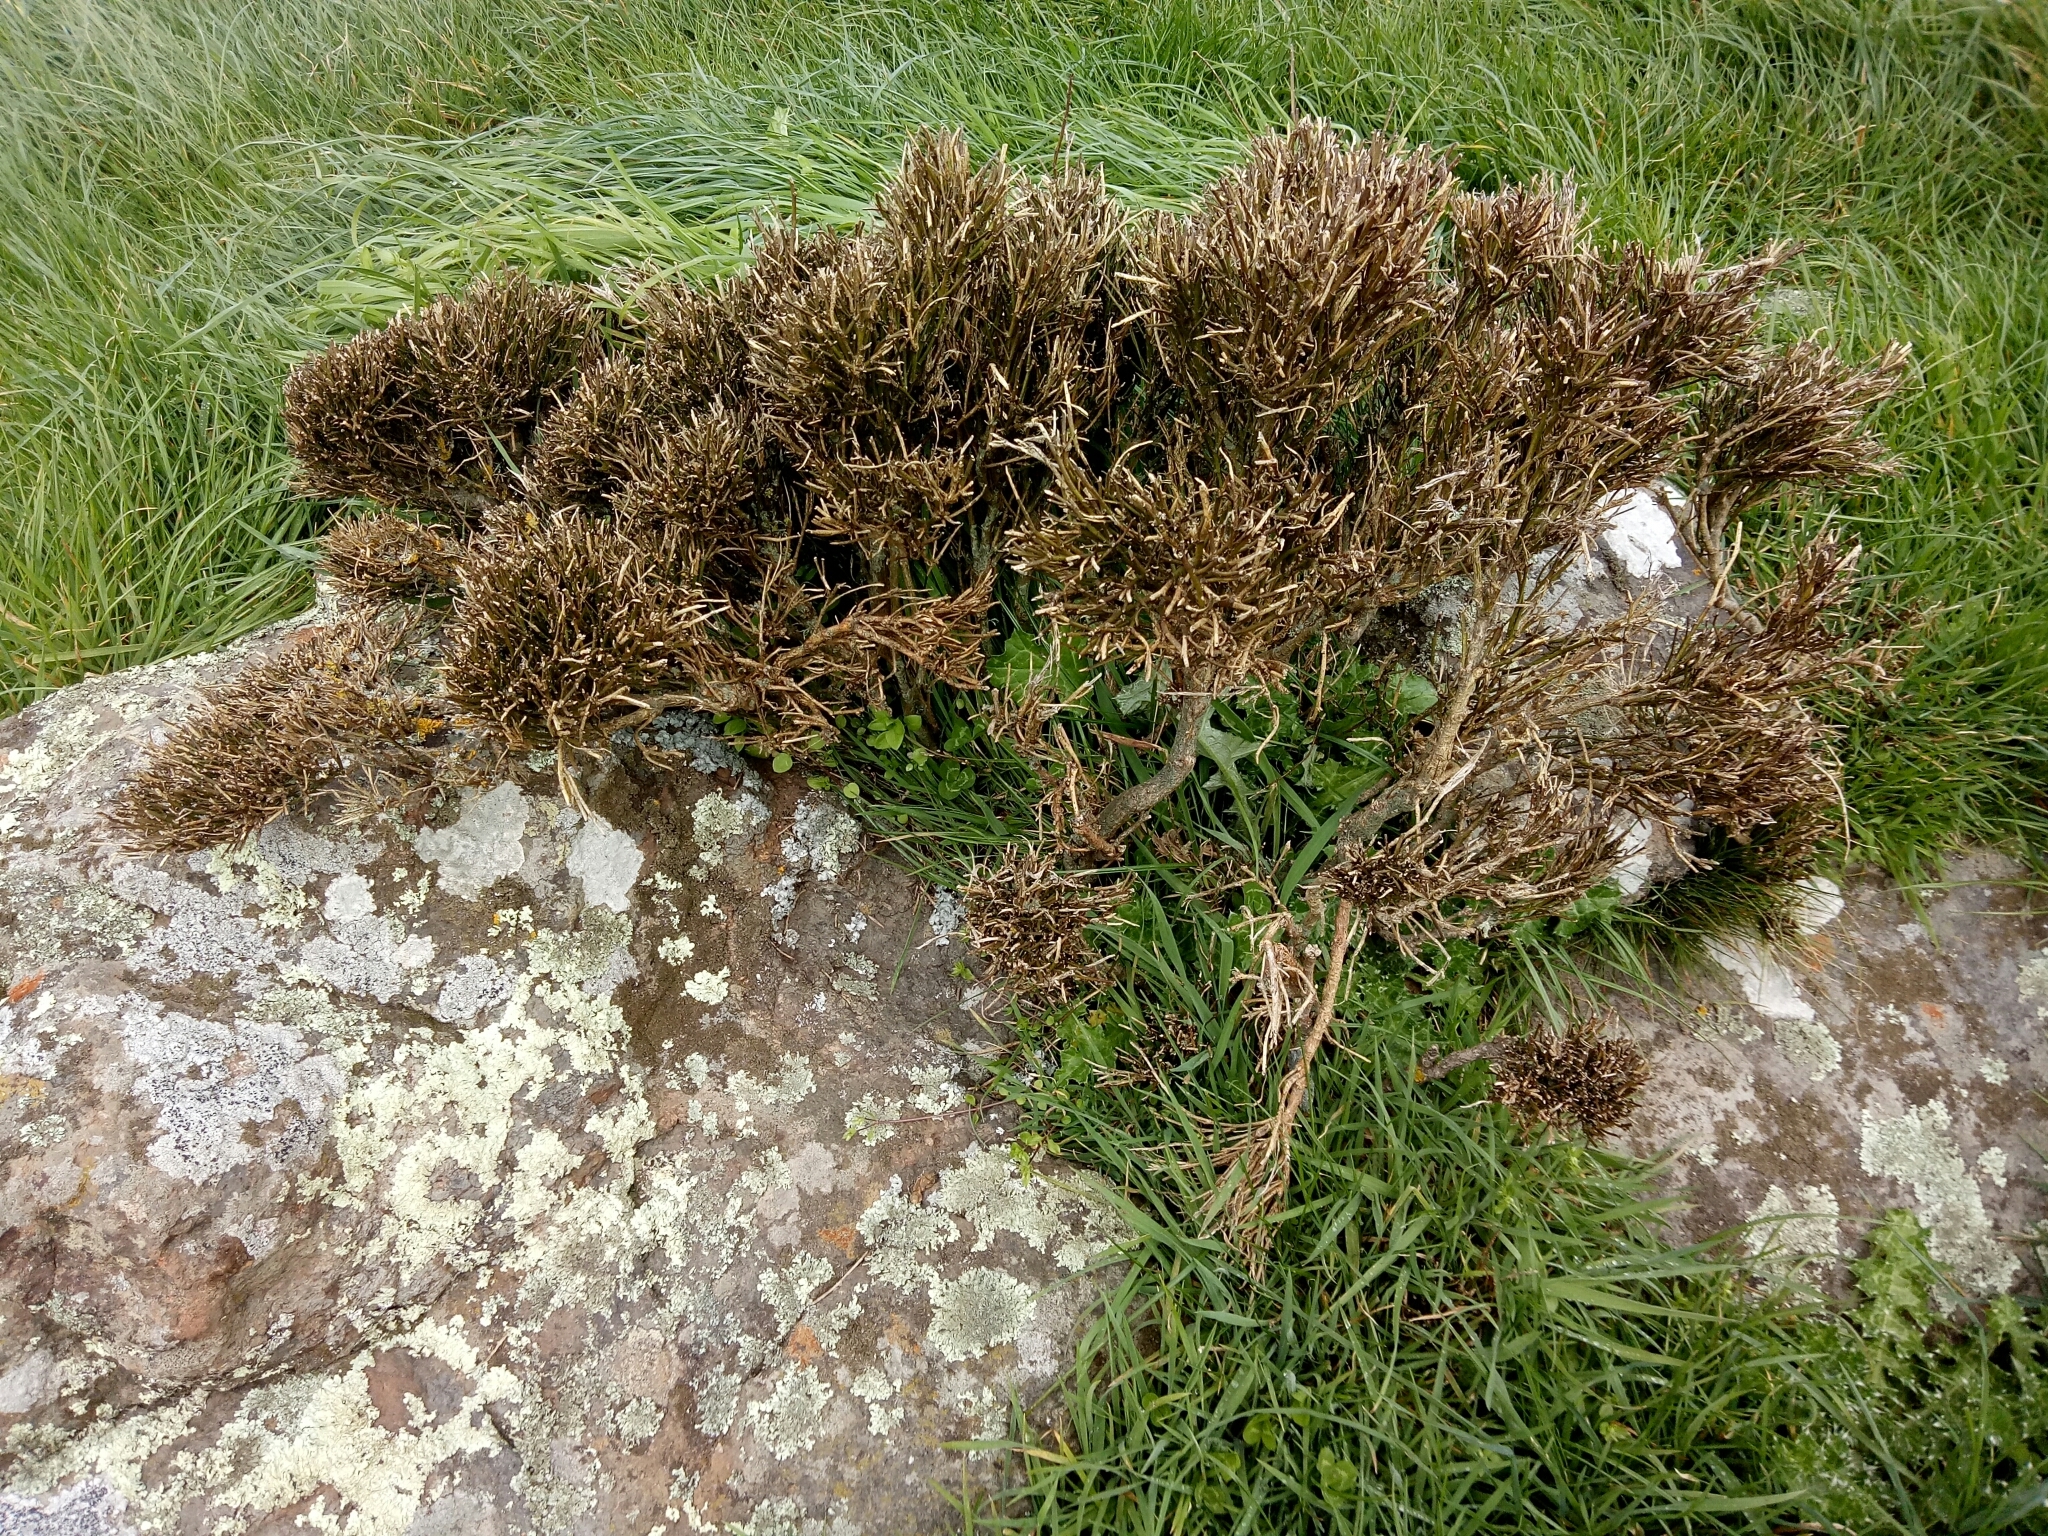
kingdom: Plantae
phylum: Tracheophyta
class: Magnoliopsida
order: Fabales
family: Fabaceae
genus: Carmichaelia
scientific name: Carmichaelia australis
